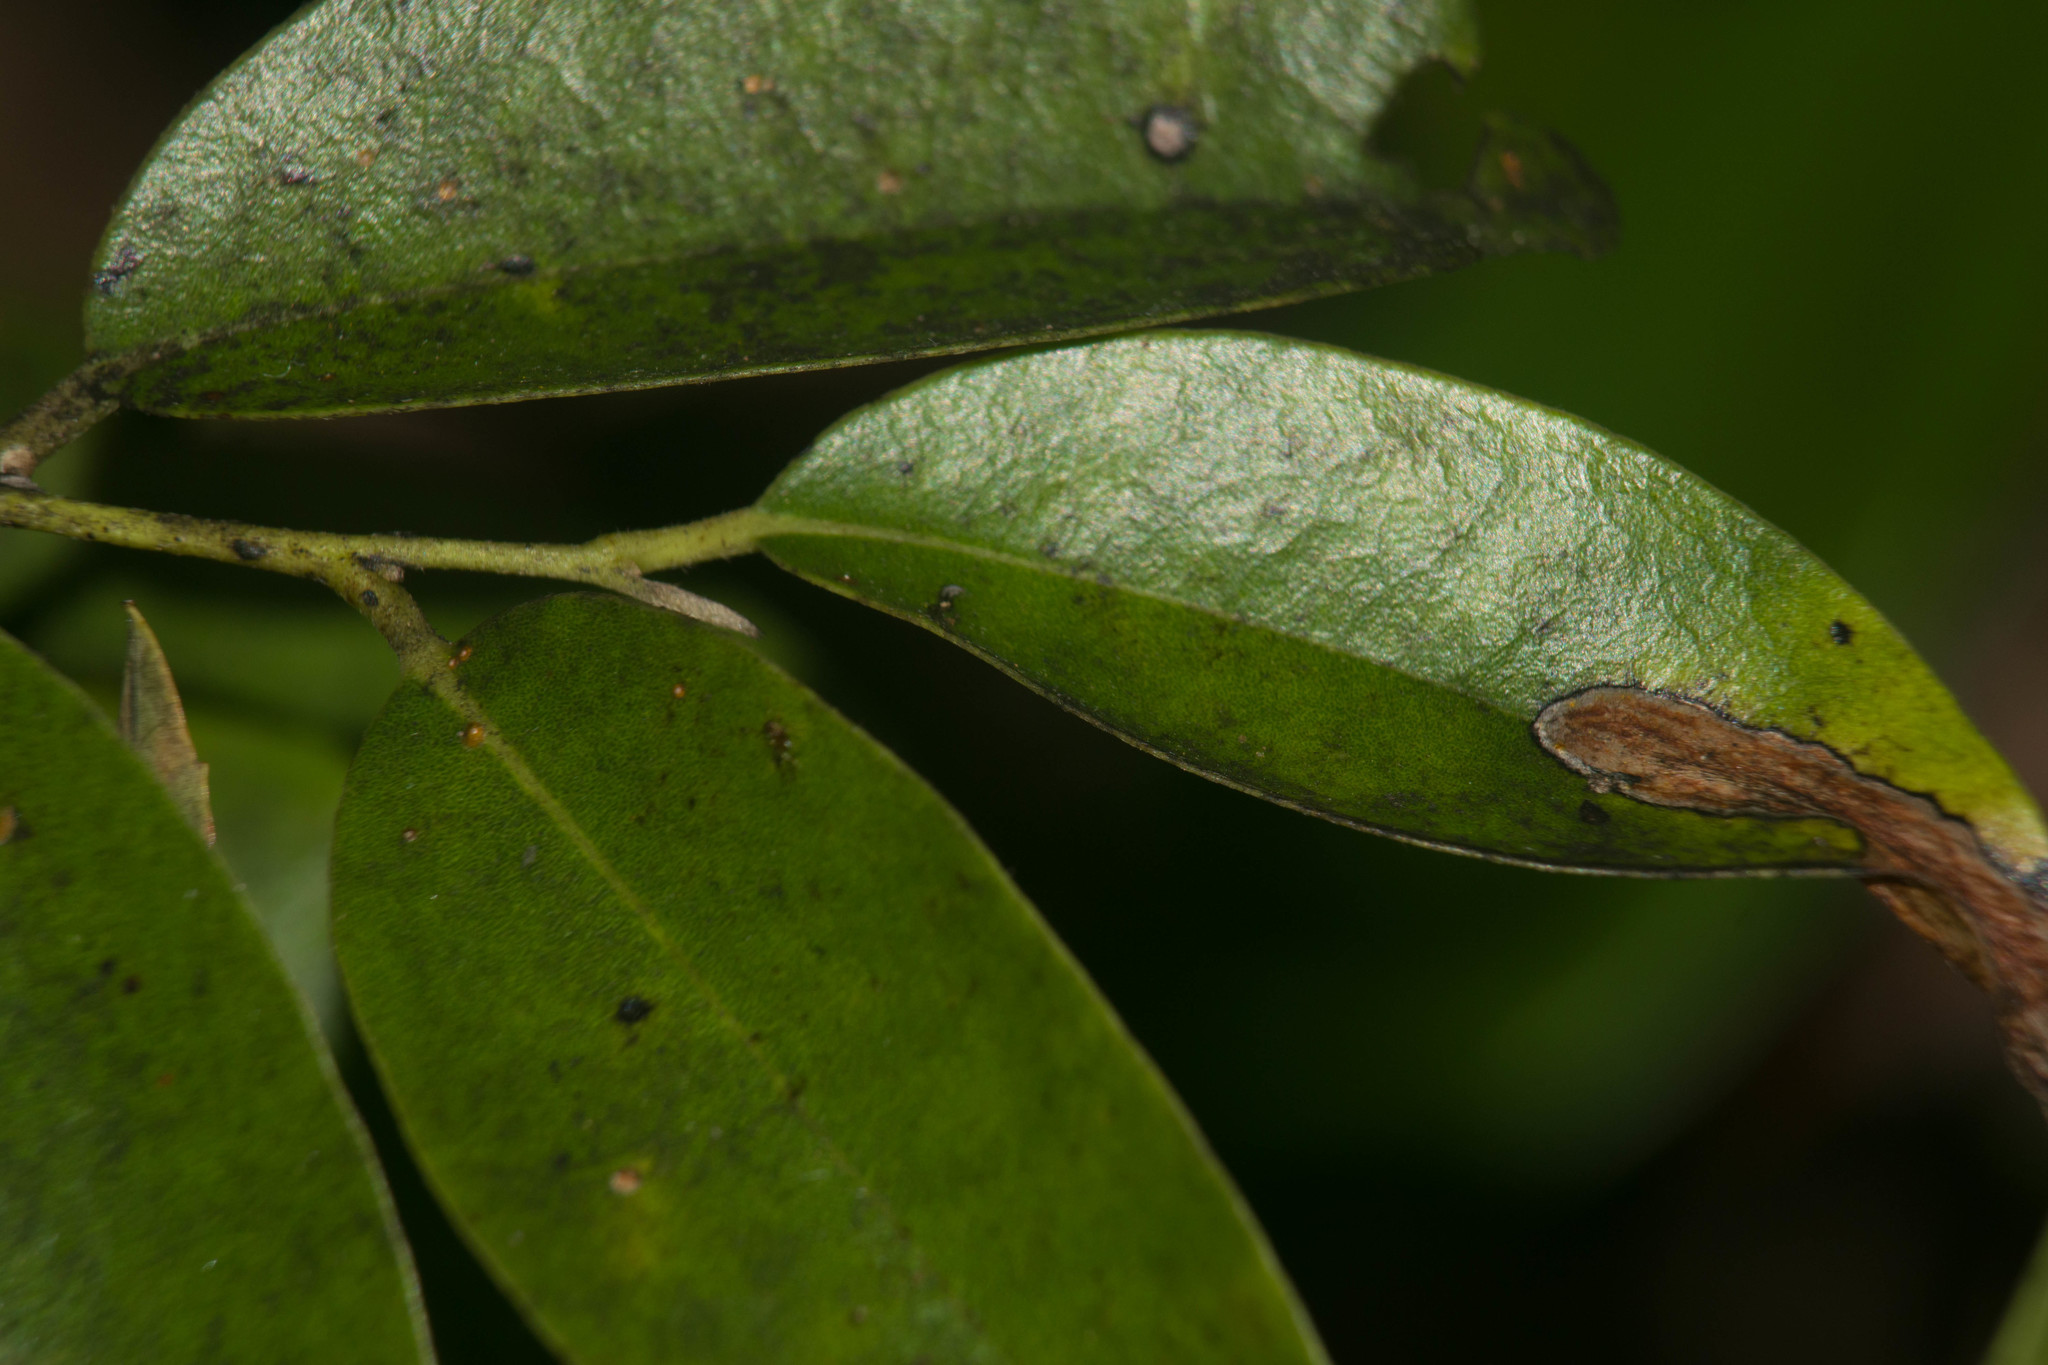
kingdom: Plantae
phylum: Tracheophyta
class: Magnoliopsida
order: Ericales
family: Ebenaceae
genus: Diospyros
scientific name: Diospyros sandwicensis
